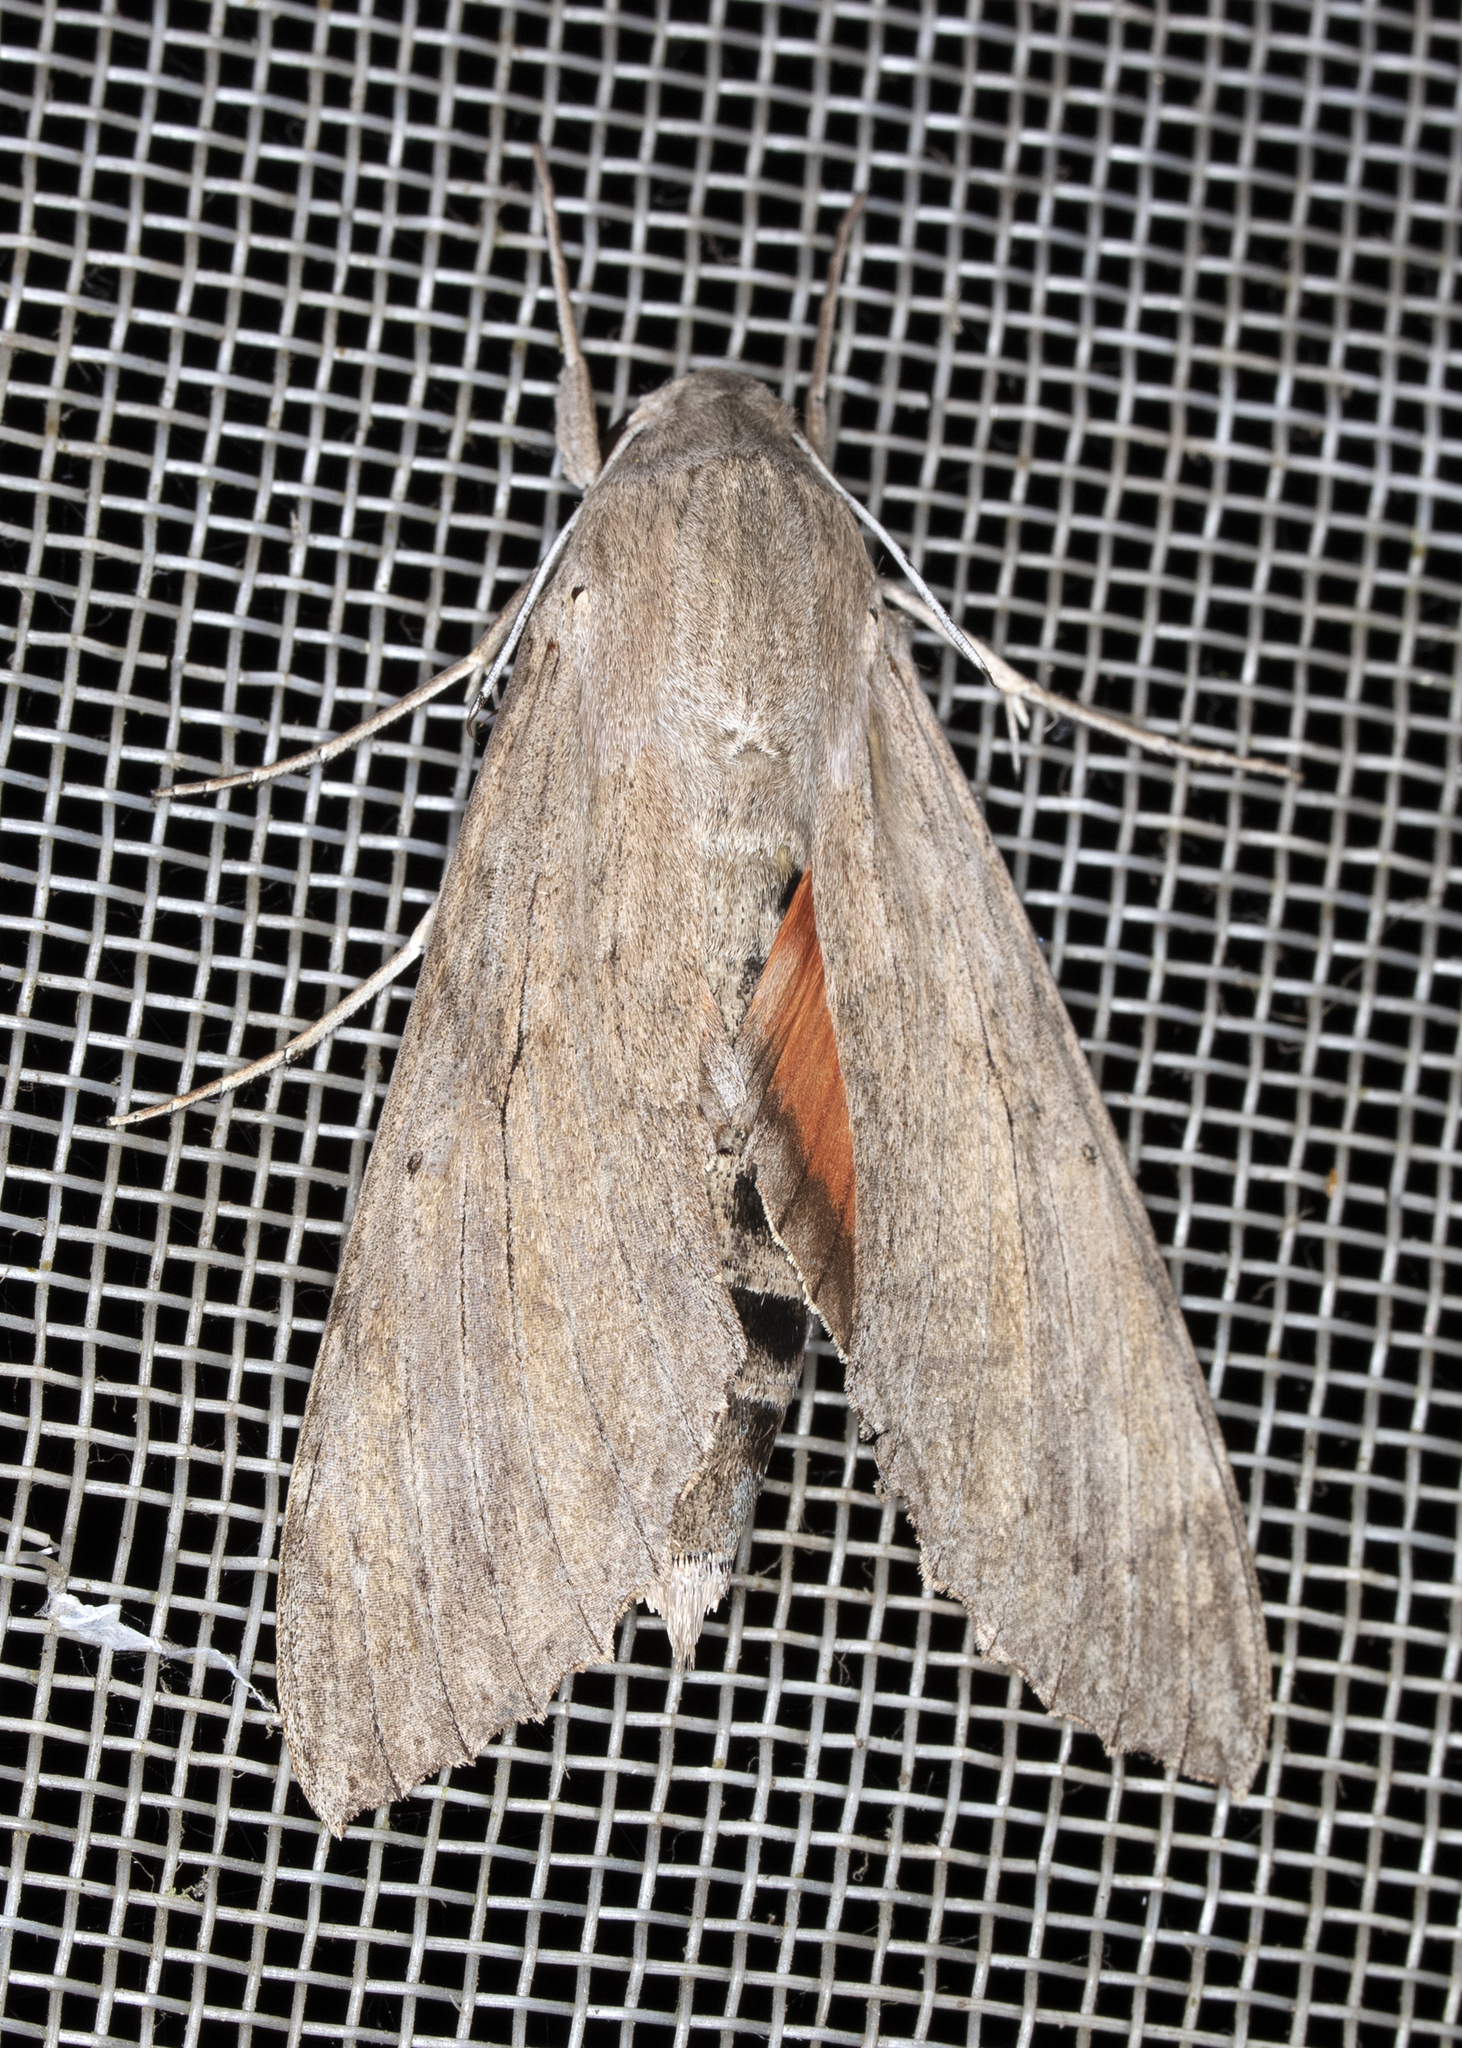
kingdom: Animalia
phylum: Arthropoda
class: Insecta
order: Lepidoptera
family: Sphingidae
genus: Erinnyis
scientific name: Erinnyis ello
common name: Ello sphinx
